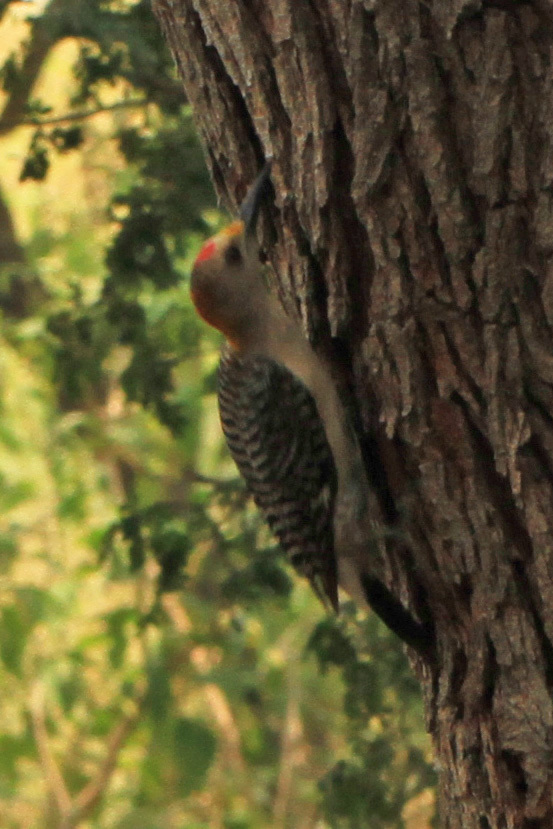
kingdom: Animalia
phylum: Chordata
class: Aves
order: Piciformes
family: Picidae
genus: Melanerpes
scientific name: Melanerpes aurifrons
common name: Golden-fronted woodpecker
